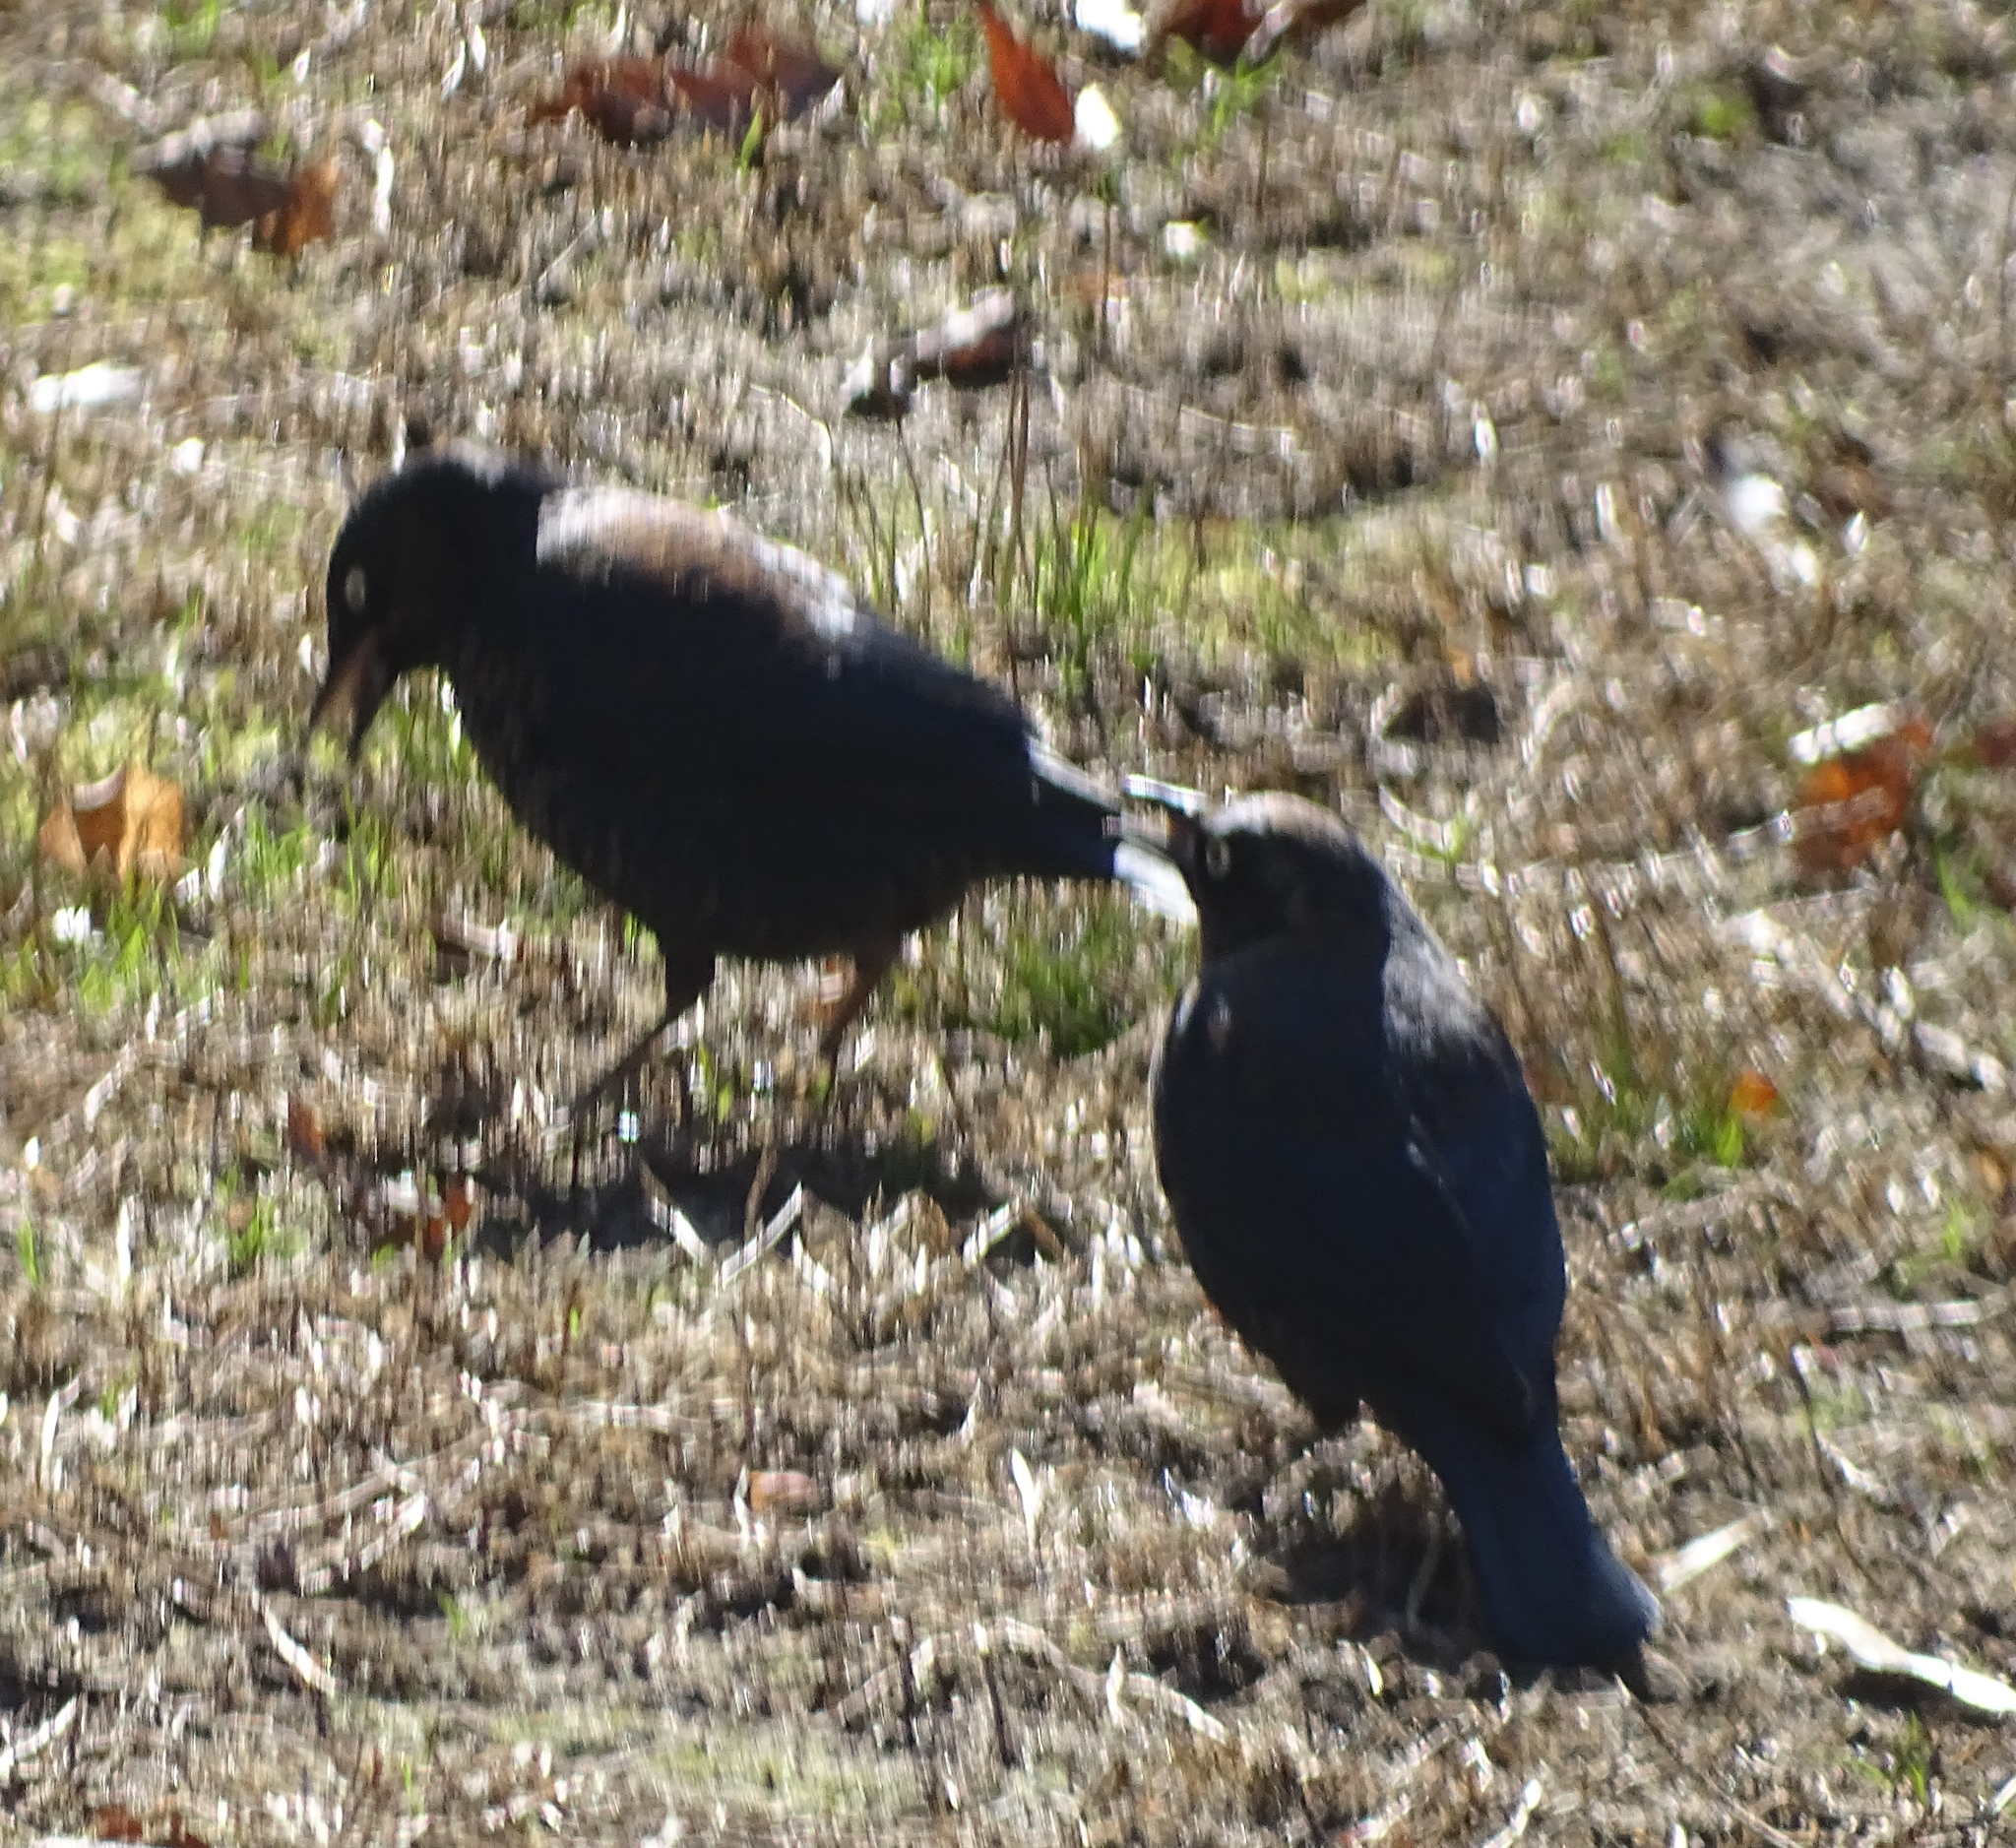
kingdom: Animalia
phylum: Chordata
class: Aves
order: Passeriformes
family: Icteridae
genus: Euphagus
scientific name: Euphagus carolinus
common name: Rusty blackbird
